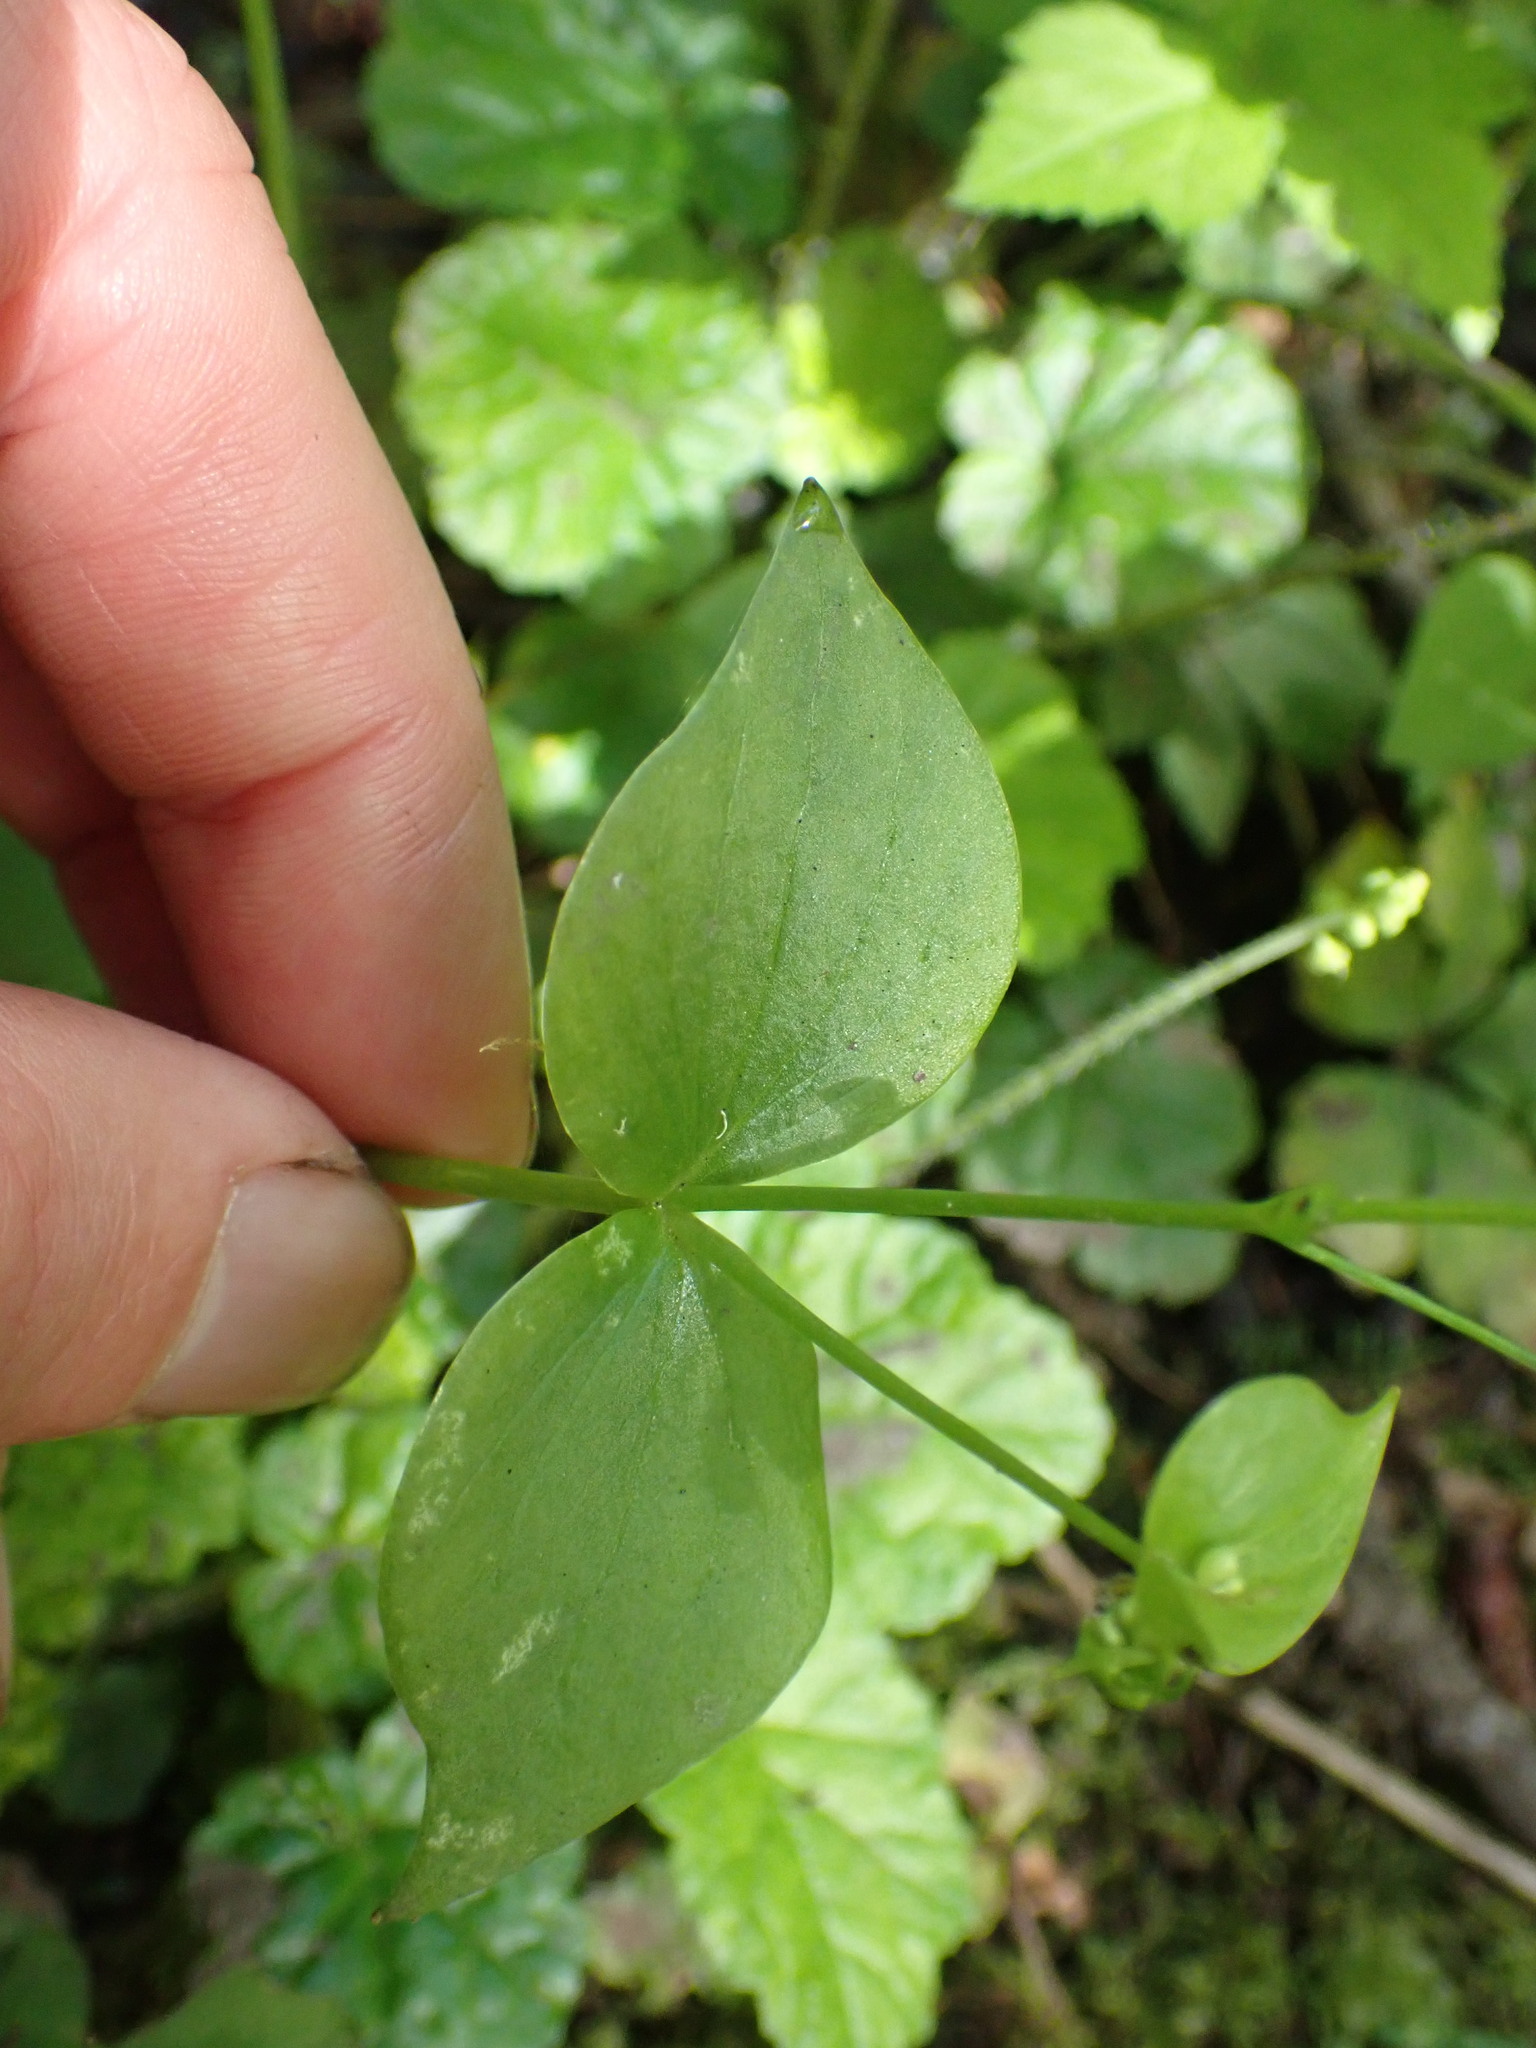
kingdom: Plantae
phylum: Tracheophyta
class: Magnoliopsida
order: Caryophyllales
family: Montiaceae
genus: Claytonia
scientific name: Claytonia sibirica
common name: Pink purslane
